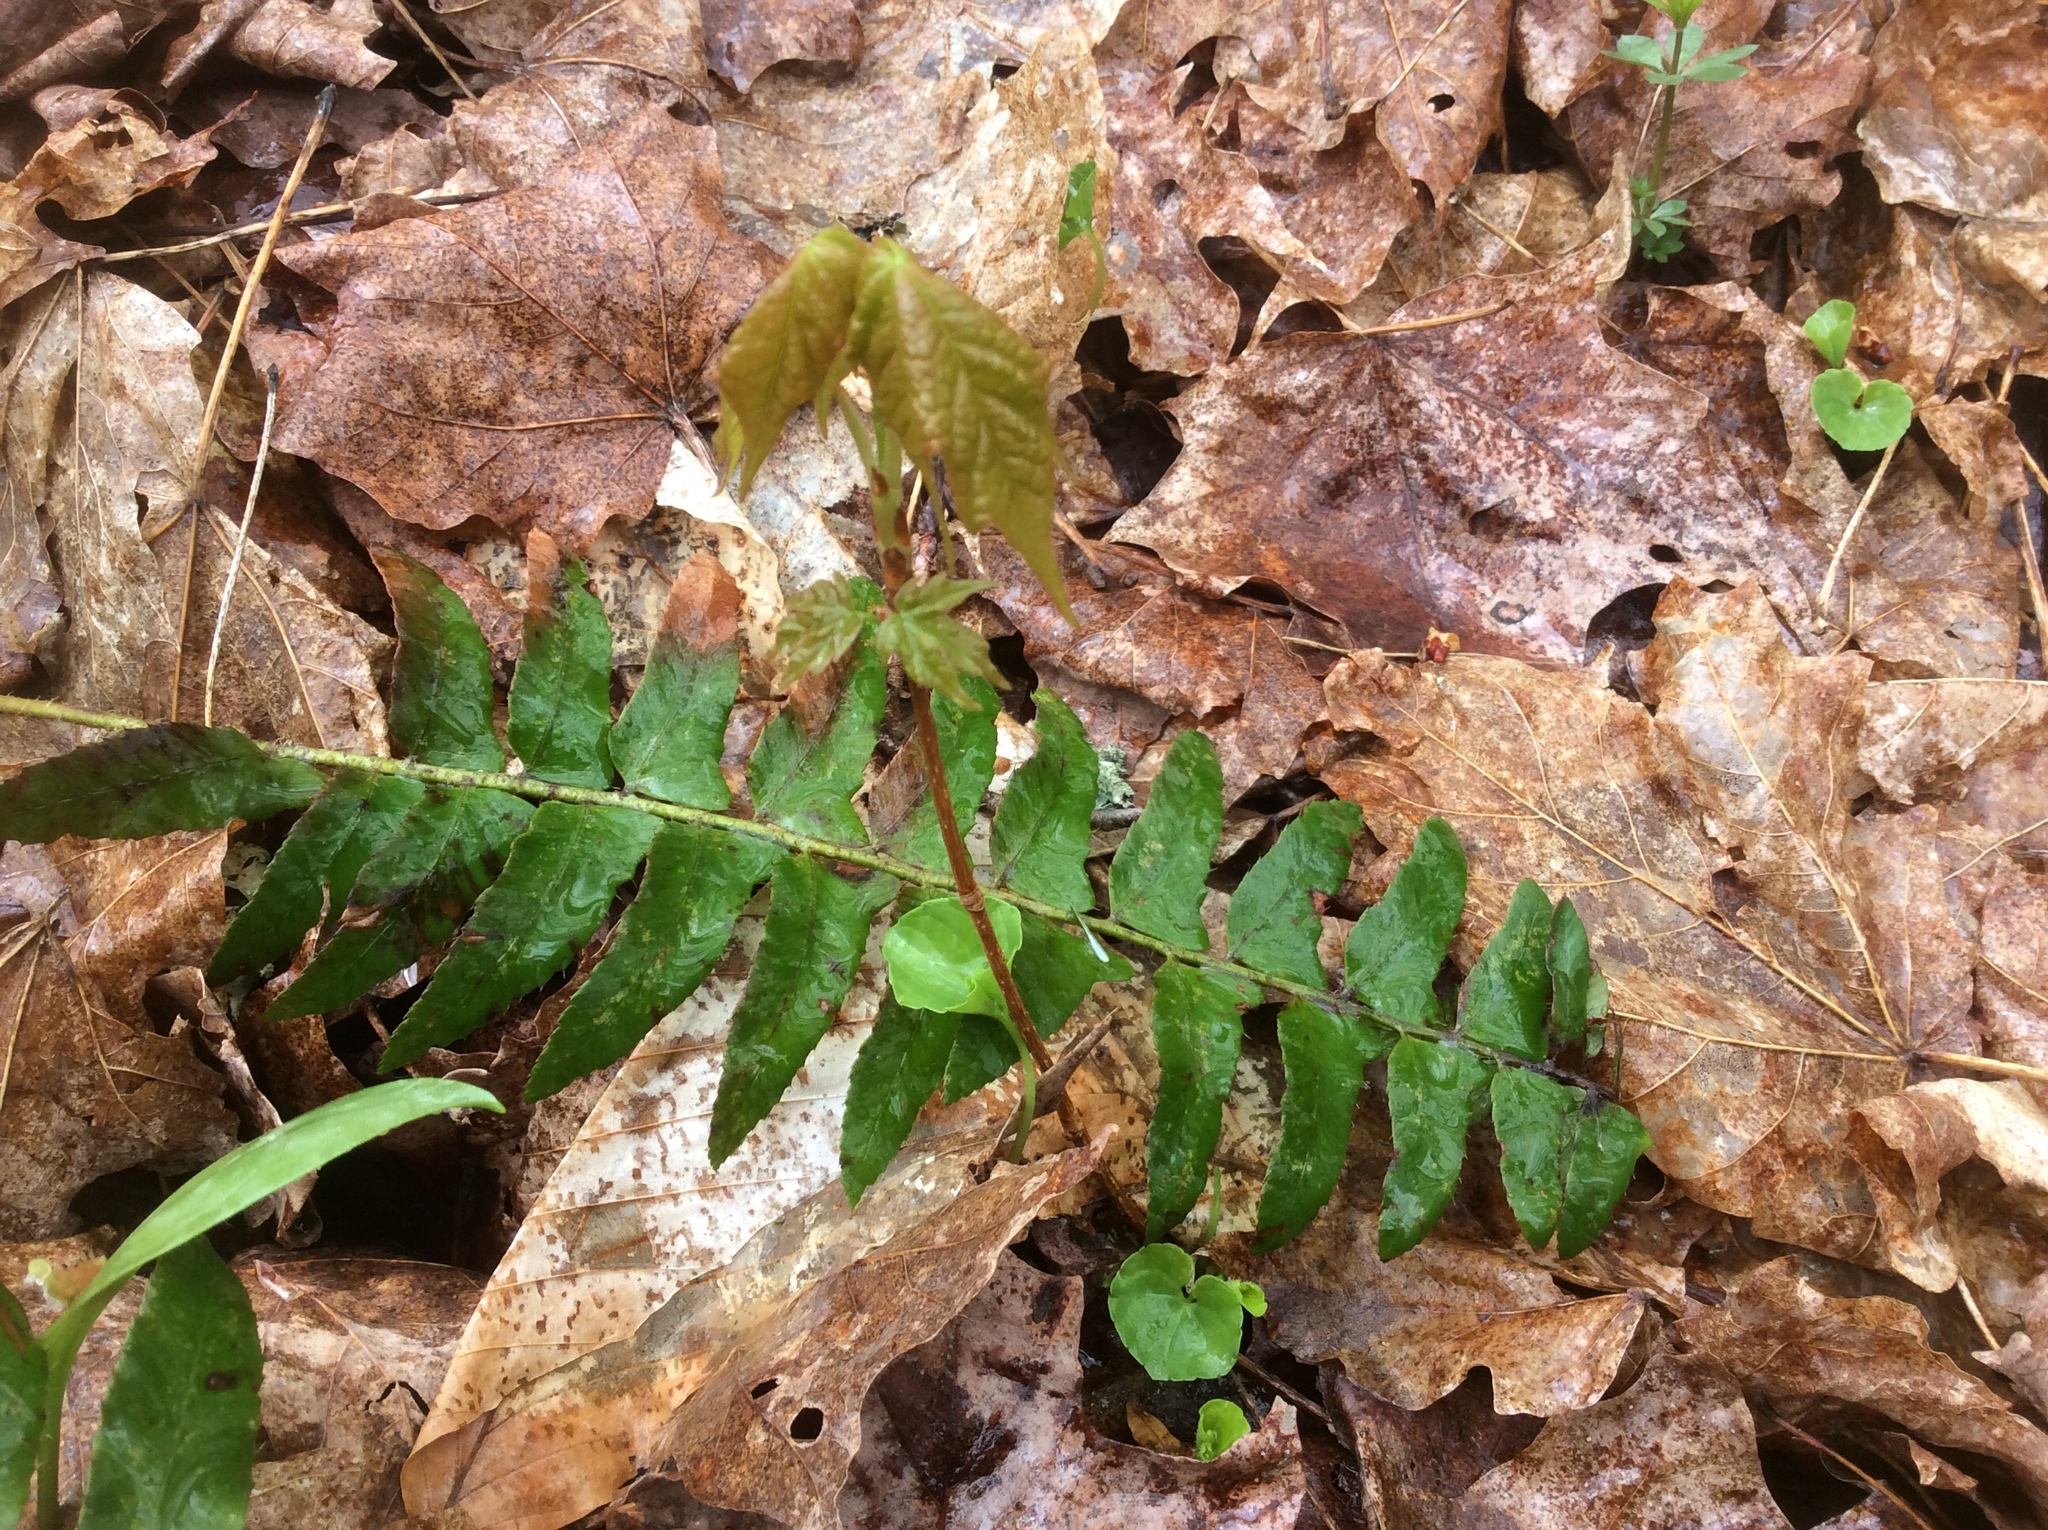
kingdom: Plantae
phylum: Tracheophyta
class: Magnoliopsida
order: Sapindales
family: Sapindaceae
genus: Acer
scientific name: Acer saccharum
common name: Sugar maple
